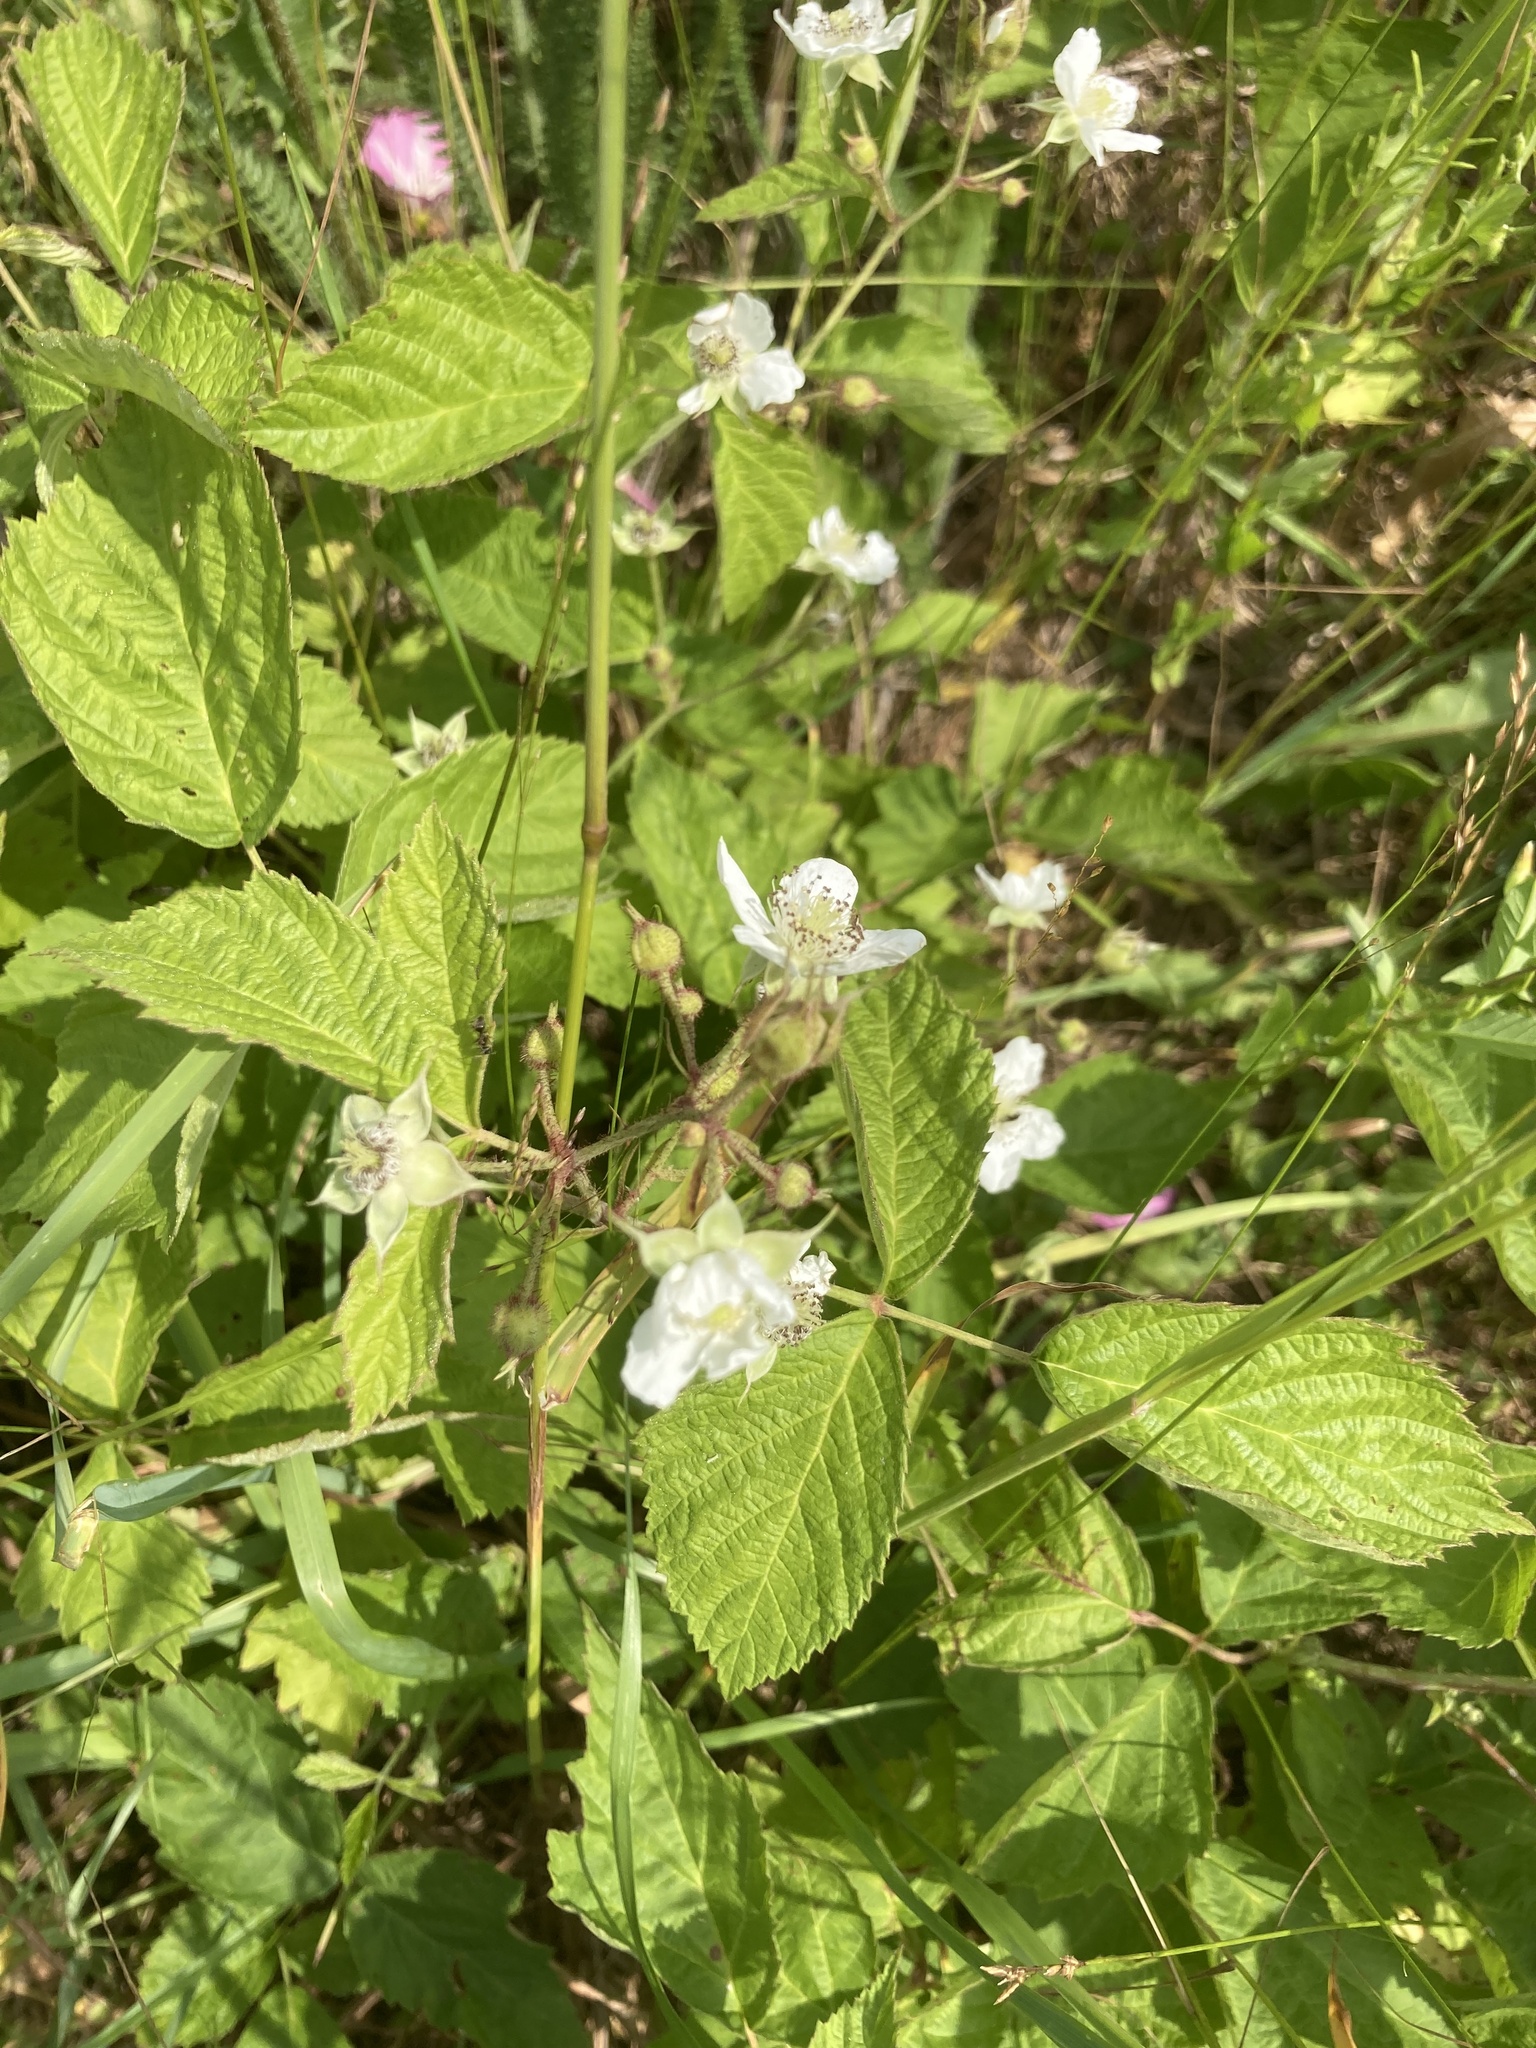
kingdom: Plantae
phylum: Tracheophyta
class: Magnoliopsida
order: Rosales
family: Rosaceae
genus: Rubus
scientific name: Rubus caesius
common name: Dewberry
